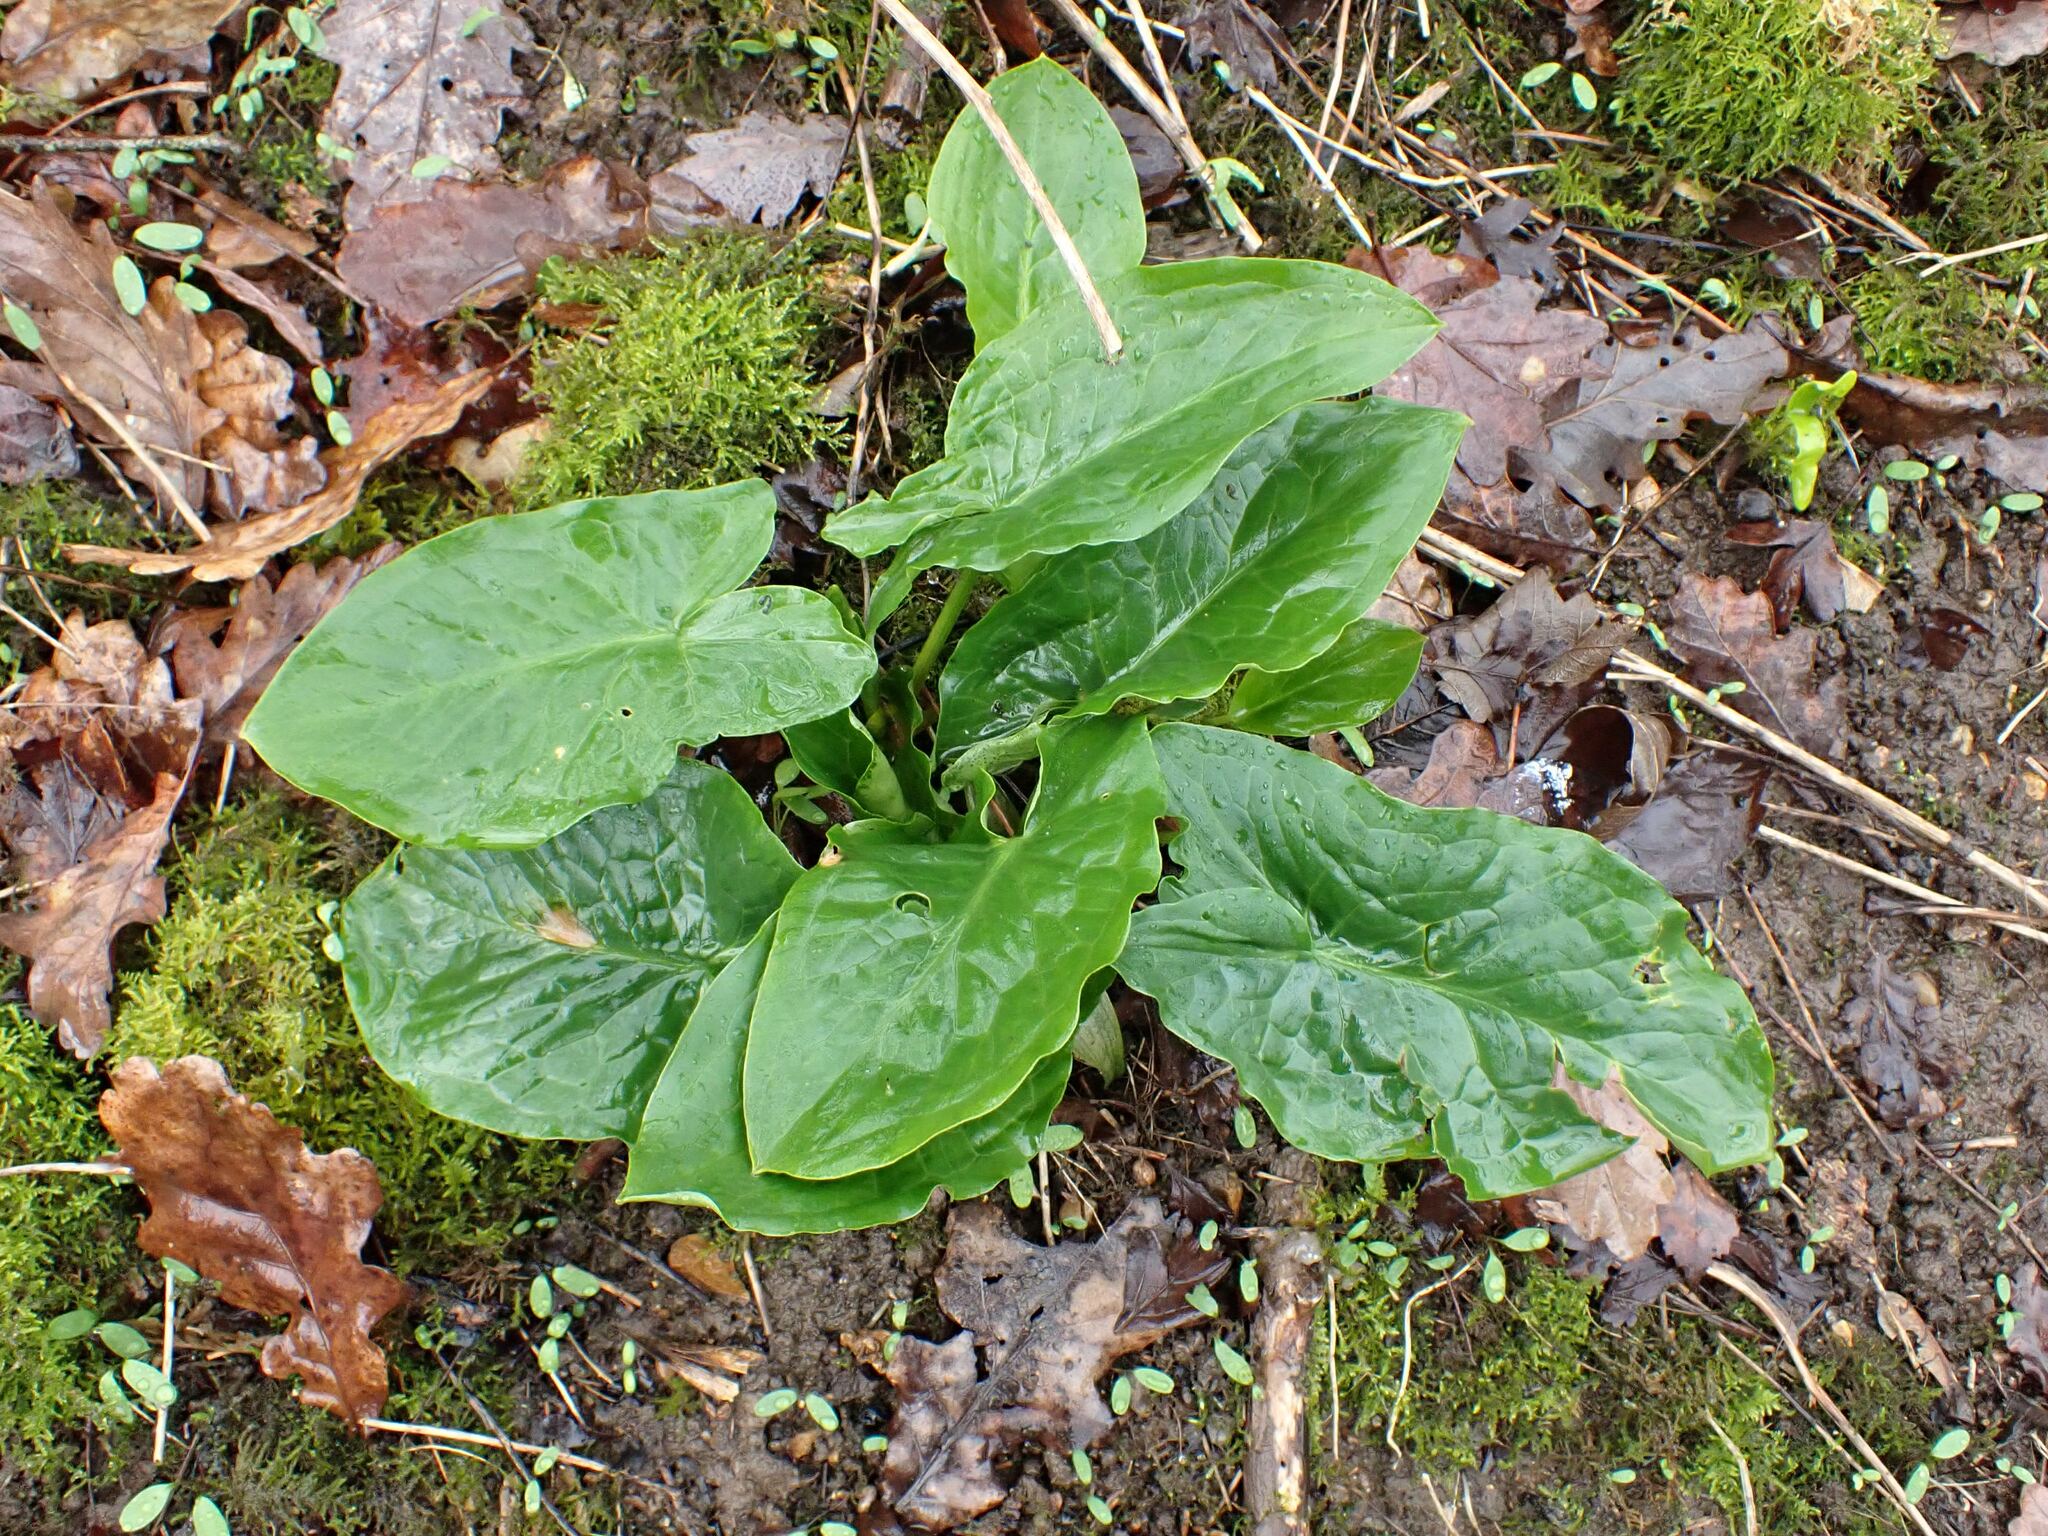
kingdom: Plantae
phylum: Tracheophyta
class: Liliopsida
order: Alismatales
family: Araceae
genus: Arum
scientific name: Arum maculatum
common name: Lords-and-ladies
